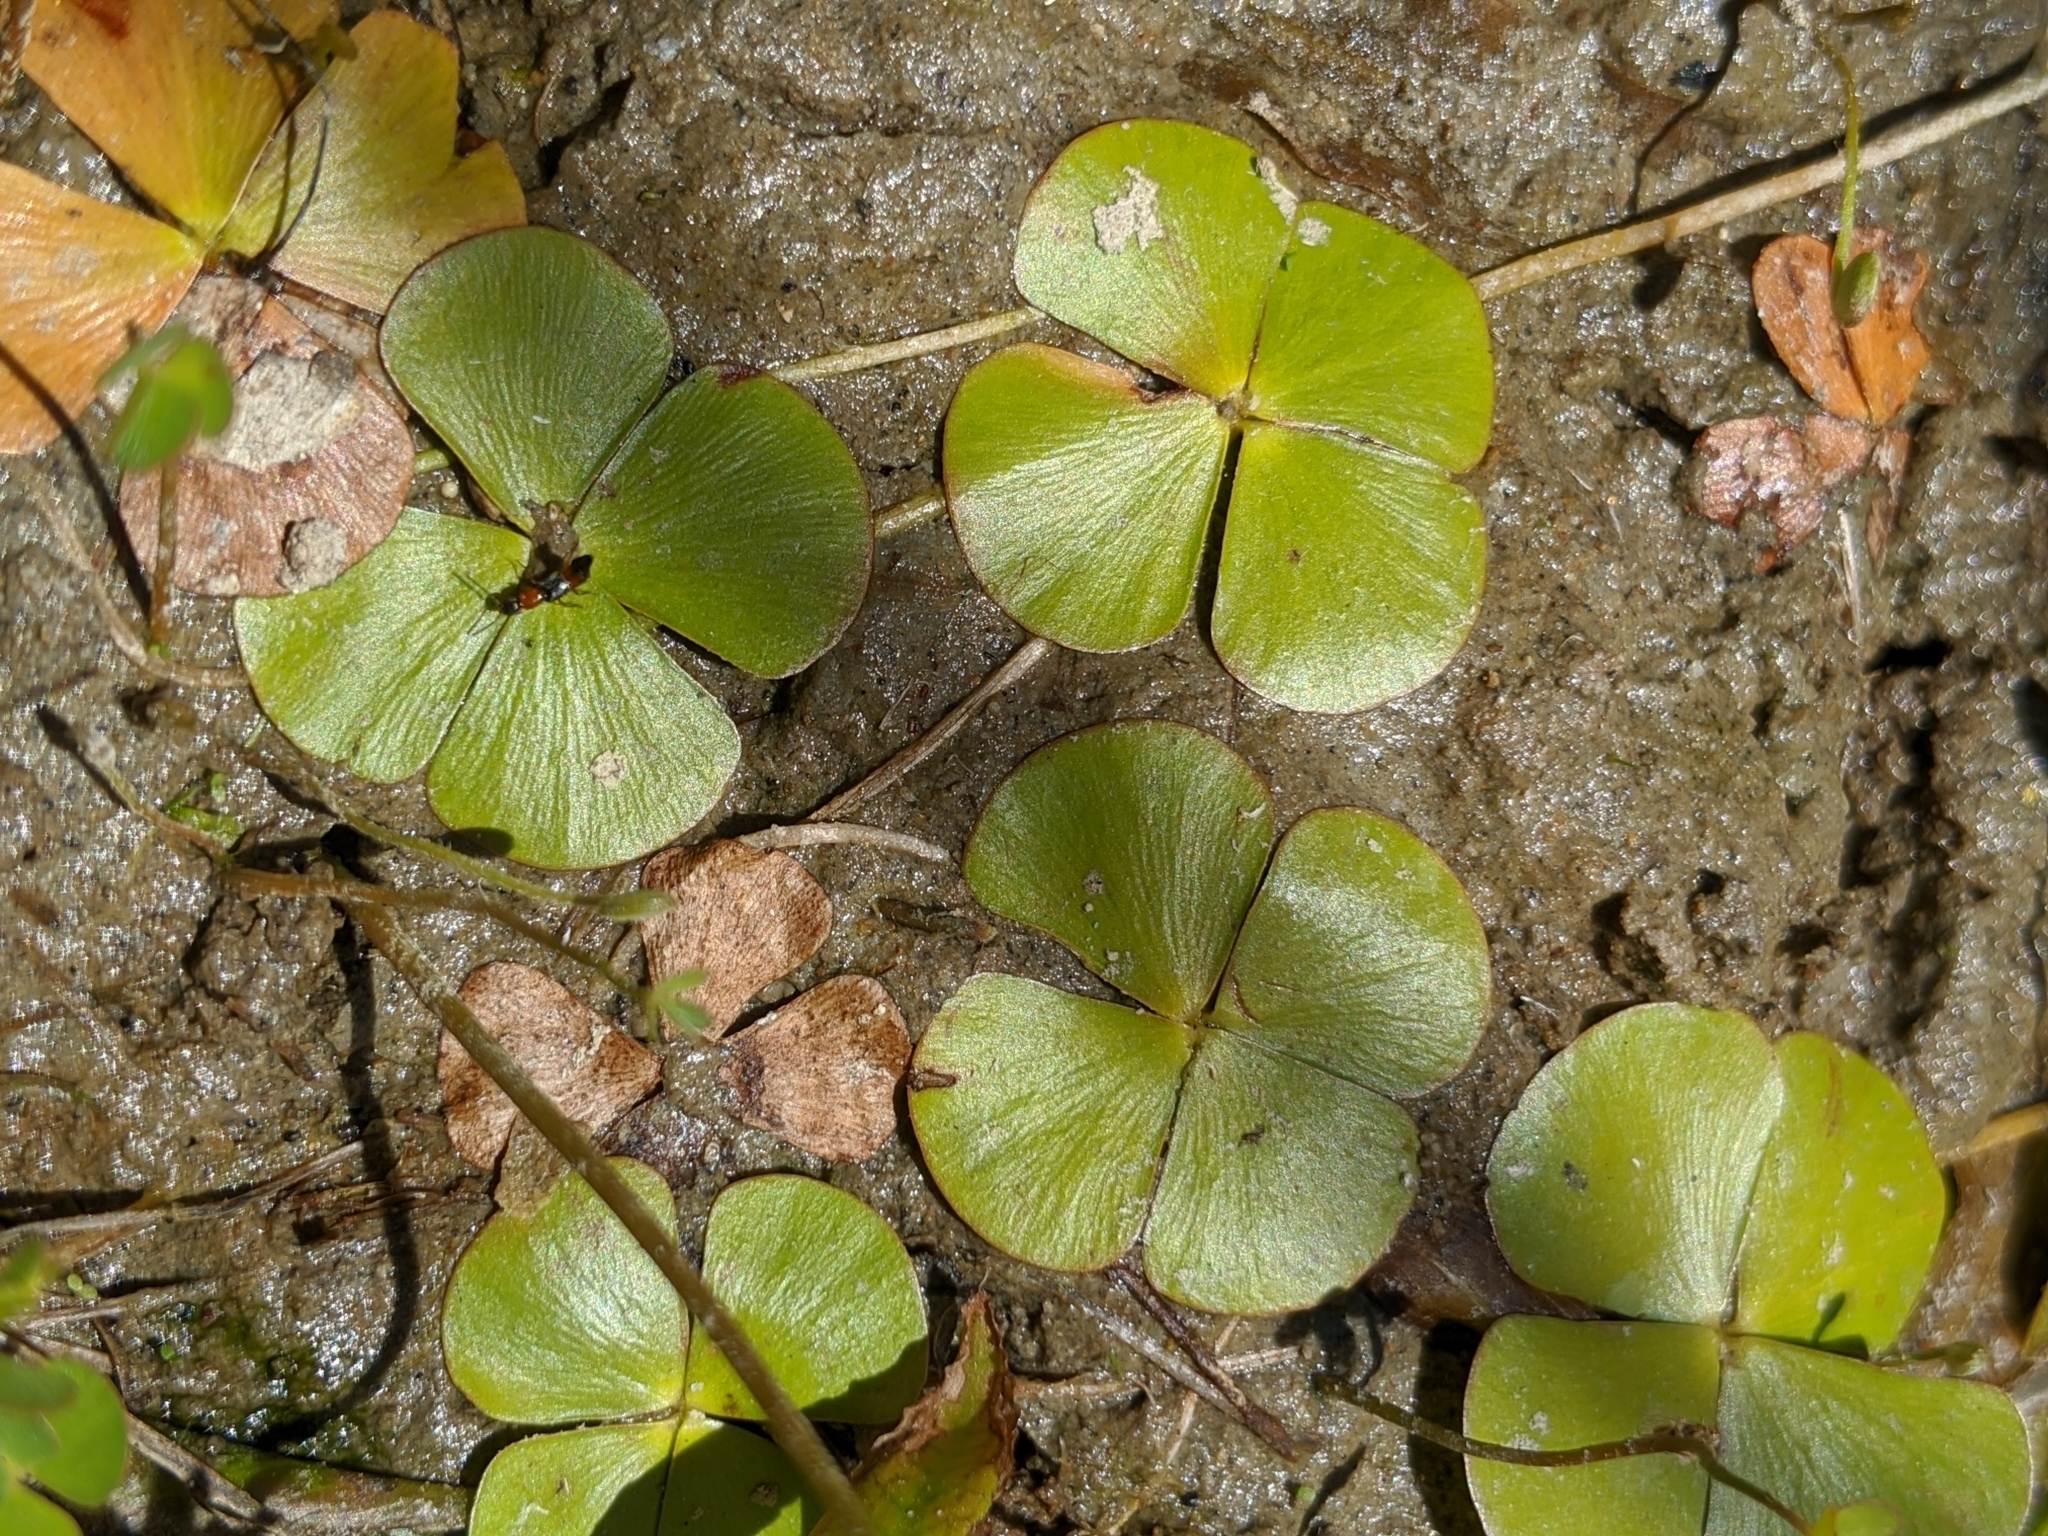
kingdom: Plantae
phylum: Tracheophyta
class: Polypodiopsida
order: Salviniales
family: Marsileaceae
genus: Marsilea
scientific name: Marsilea vestita
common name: Hooked-pepperwort
